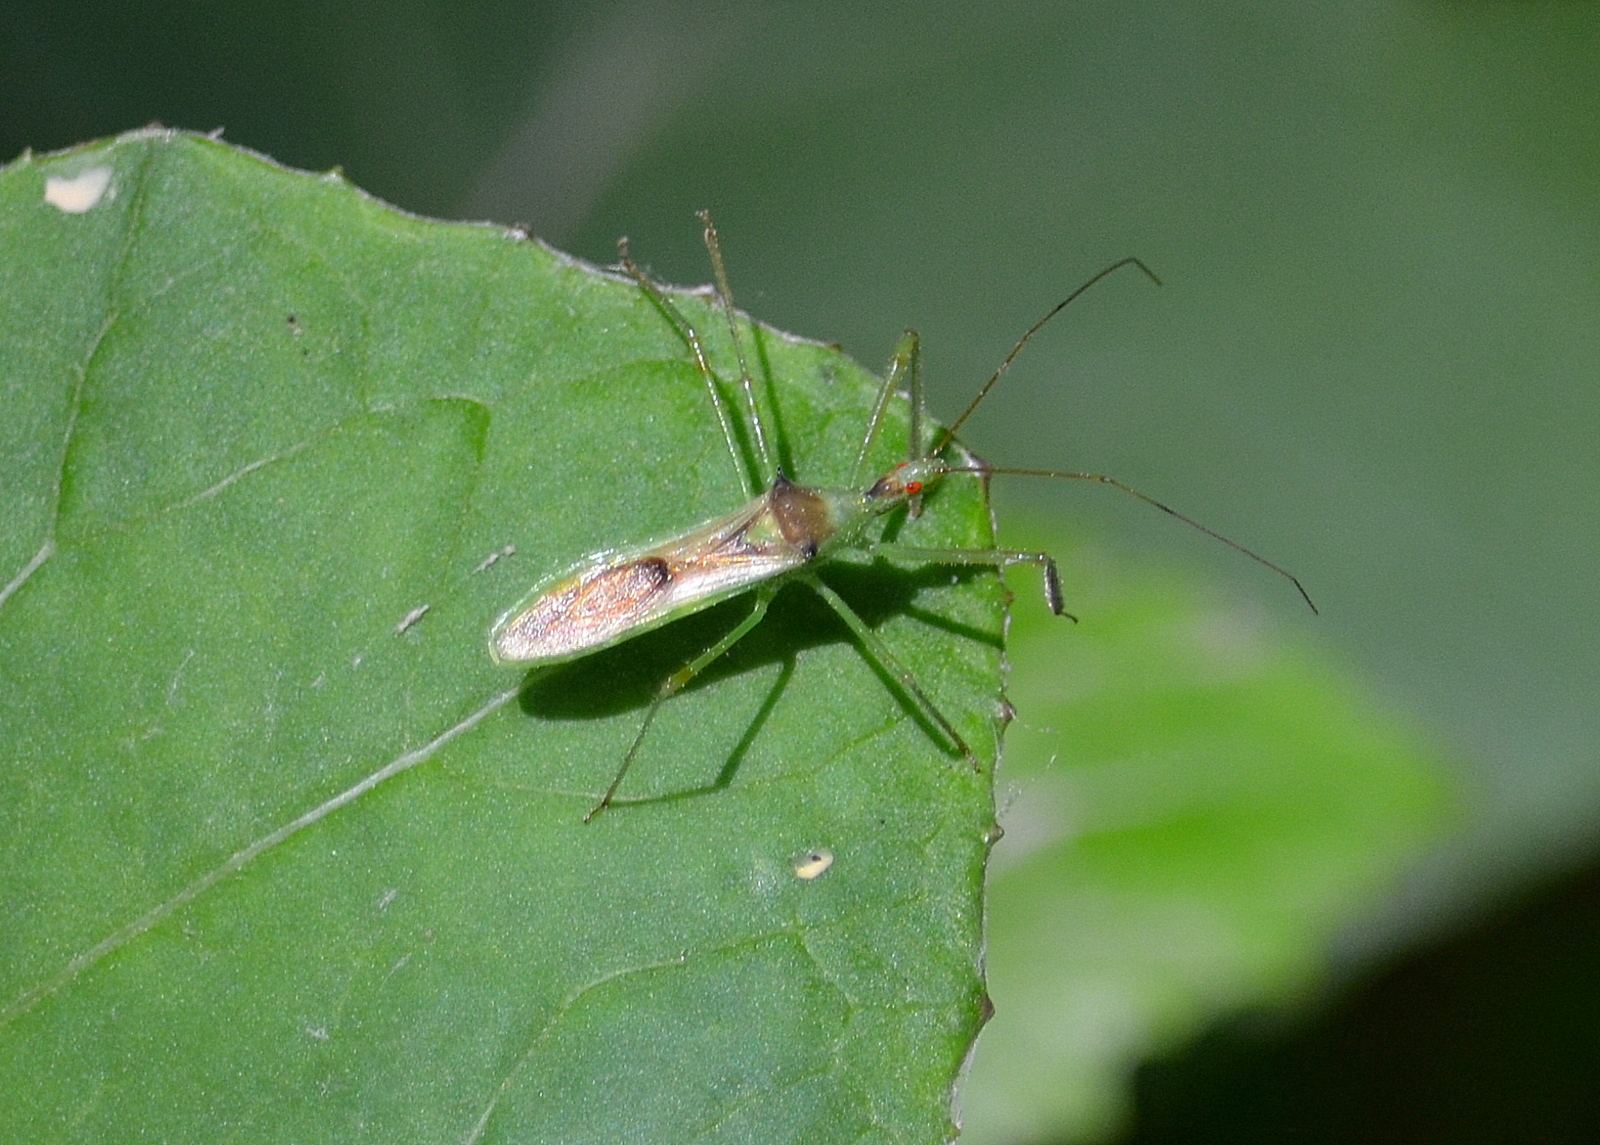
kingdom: Animalia
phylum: Arthropoda
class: Insecta
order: Hemiptera
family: Reduviidae
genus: Zelus
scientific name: Zelus luridus
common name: Pale green assassin bug
